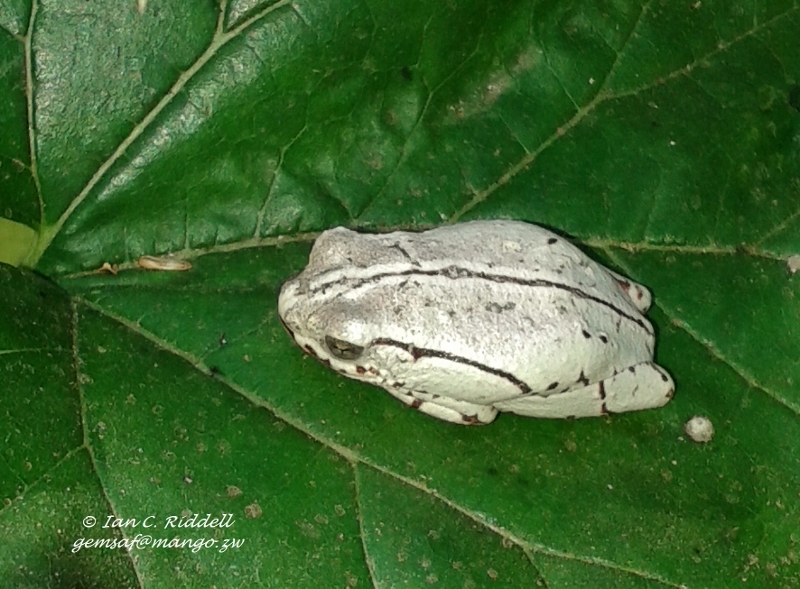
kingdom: Animalia
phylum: Chordata
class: Amphibia
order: Anura
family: Hyperoliidae
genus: Hyperolius
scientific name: Hyperolius marmoratus
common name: Painted reed frog
